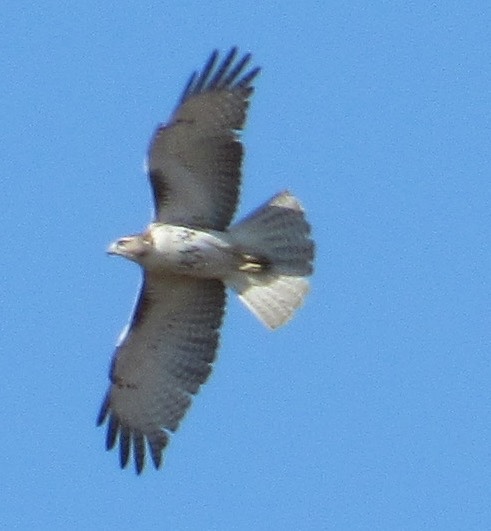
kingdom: Animalia
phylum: Chordata
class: Aves
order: Accipitriformes
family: Accipitridae
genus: Buteo
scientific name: Buteo jamaicensis
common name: Red-tailed hawk
